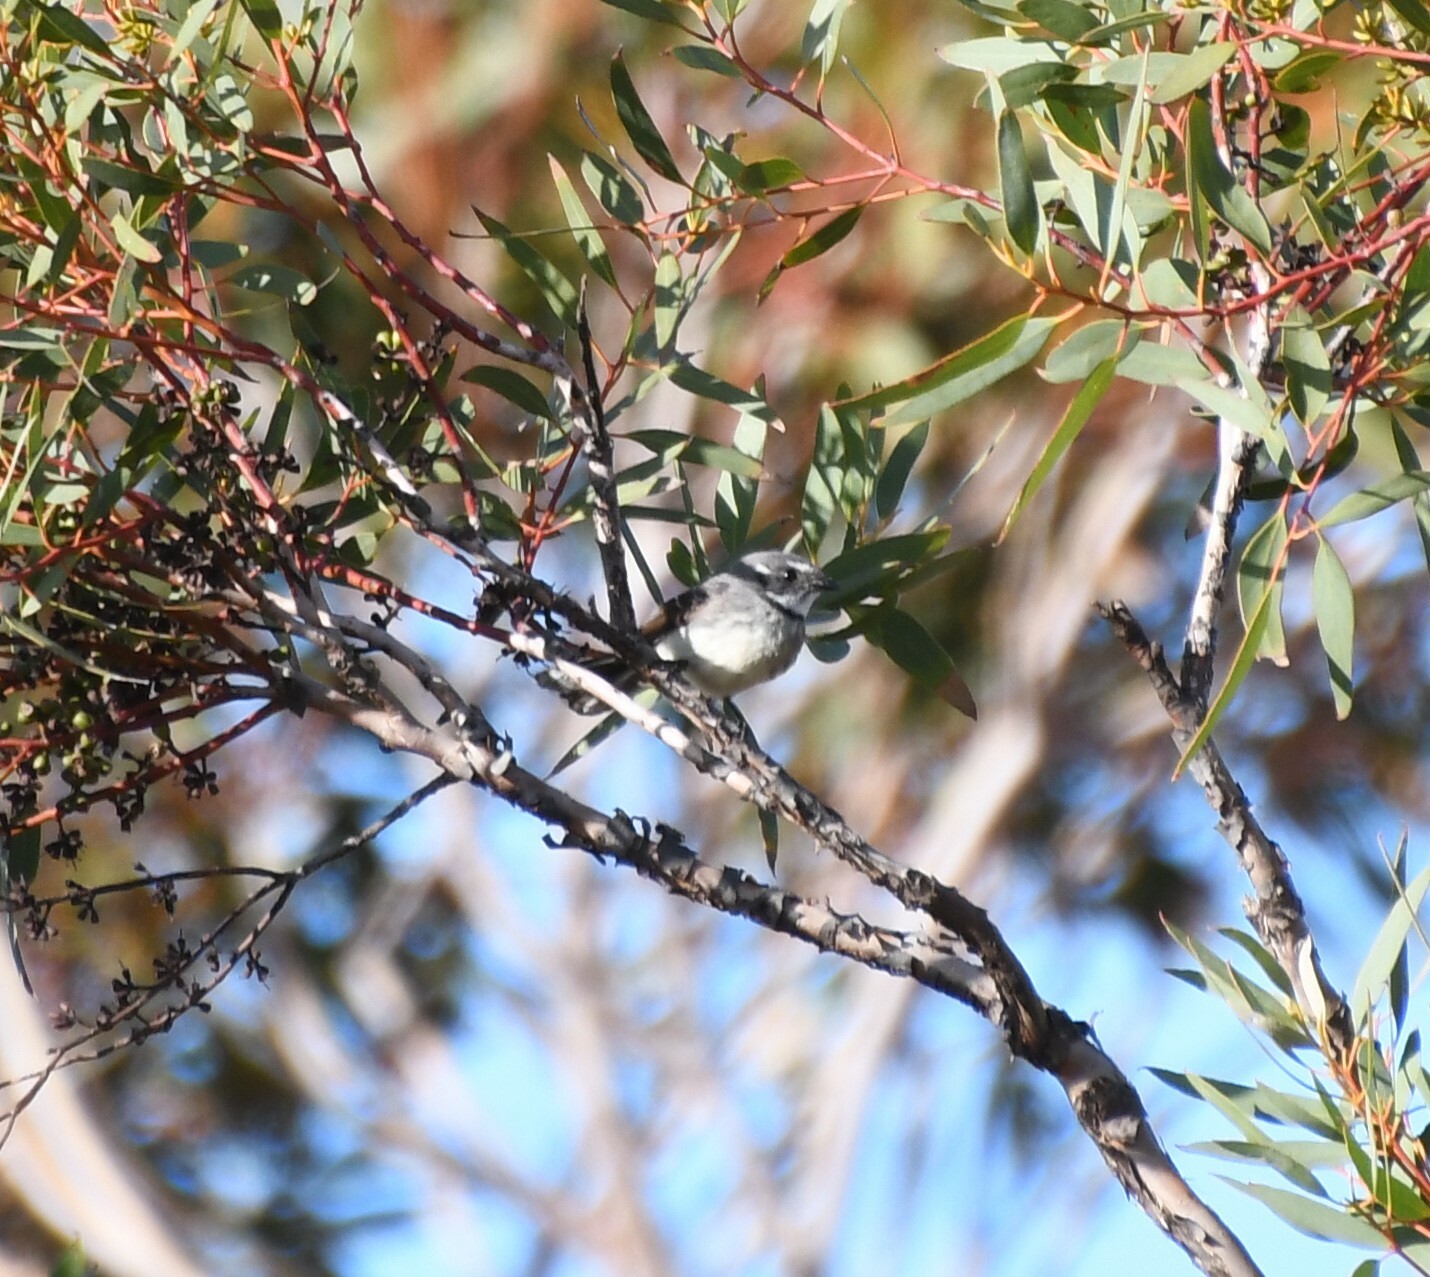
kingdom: Animalia
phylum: Chordata
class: Aves
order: Passeriformes
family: Rhipiduridae
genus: Rhipidura
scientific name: Rhipidura albiscapa
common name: Grey fantail
